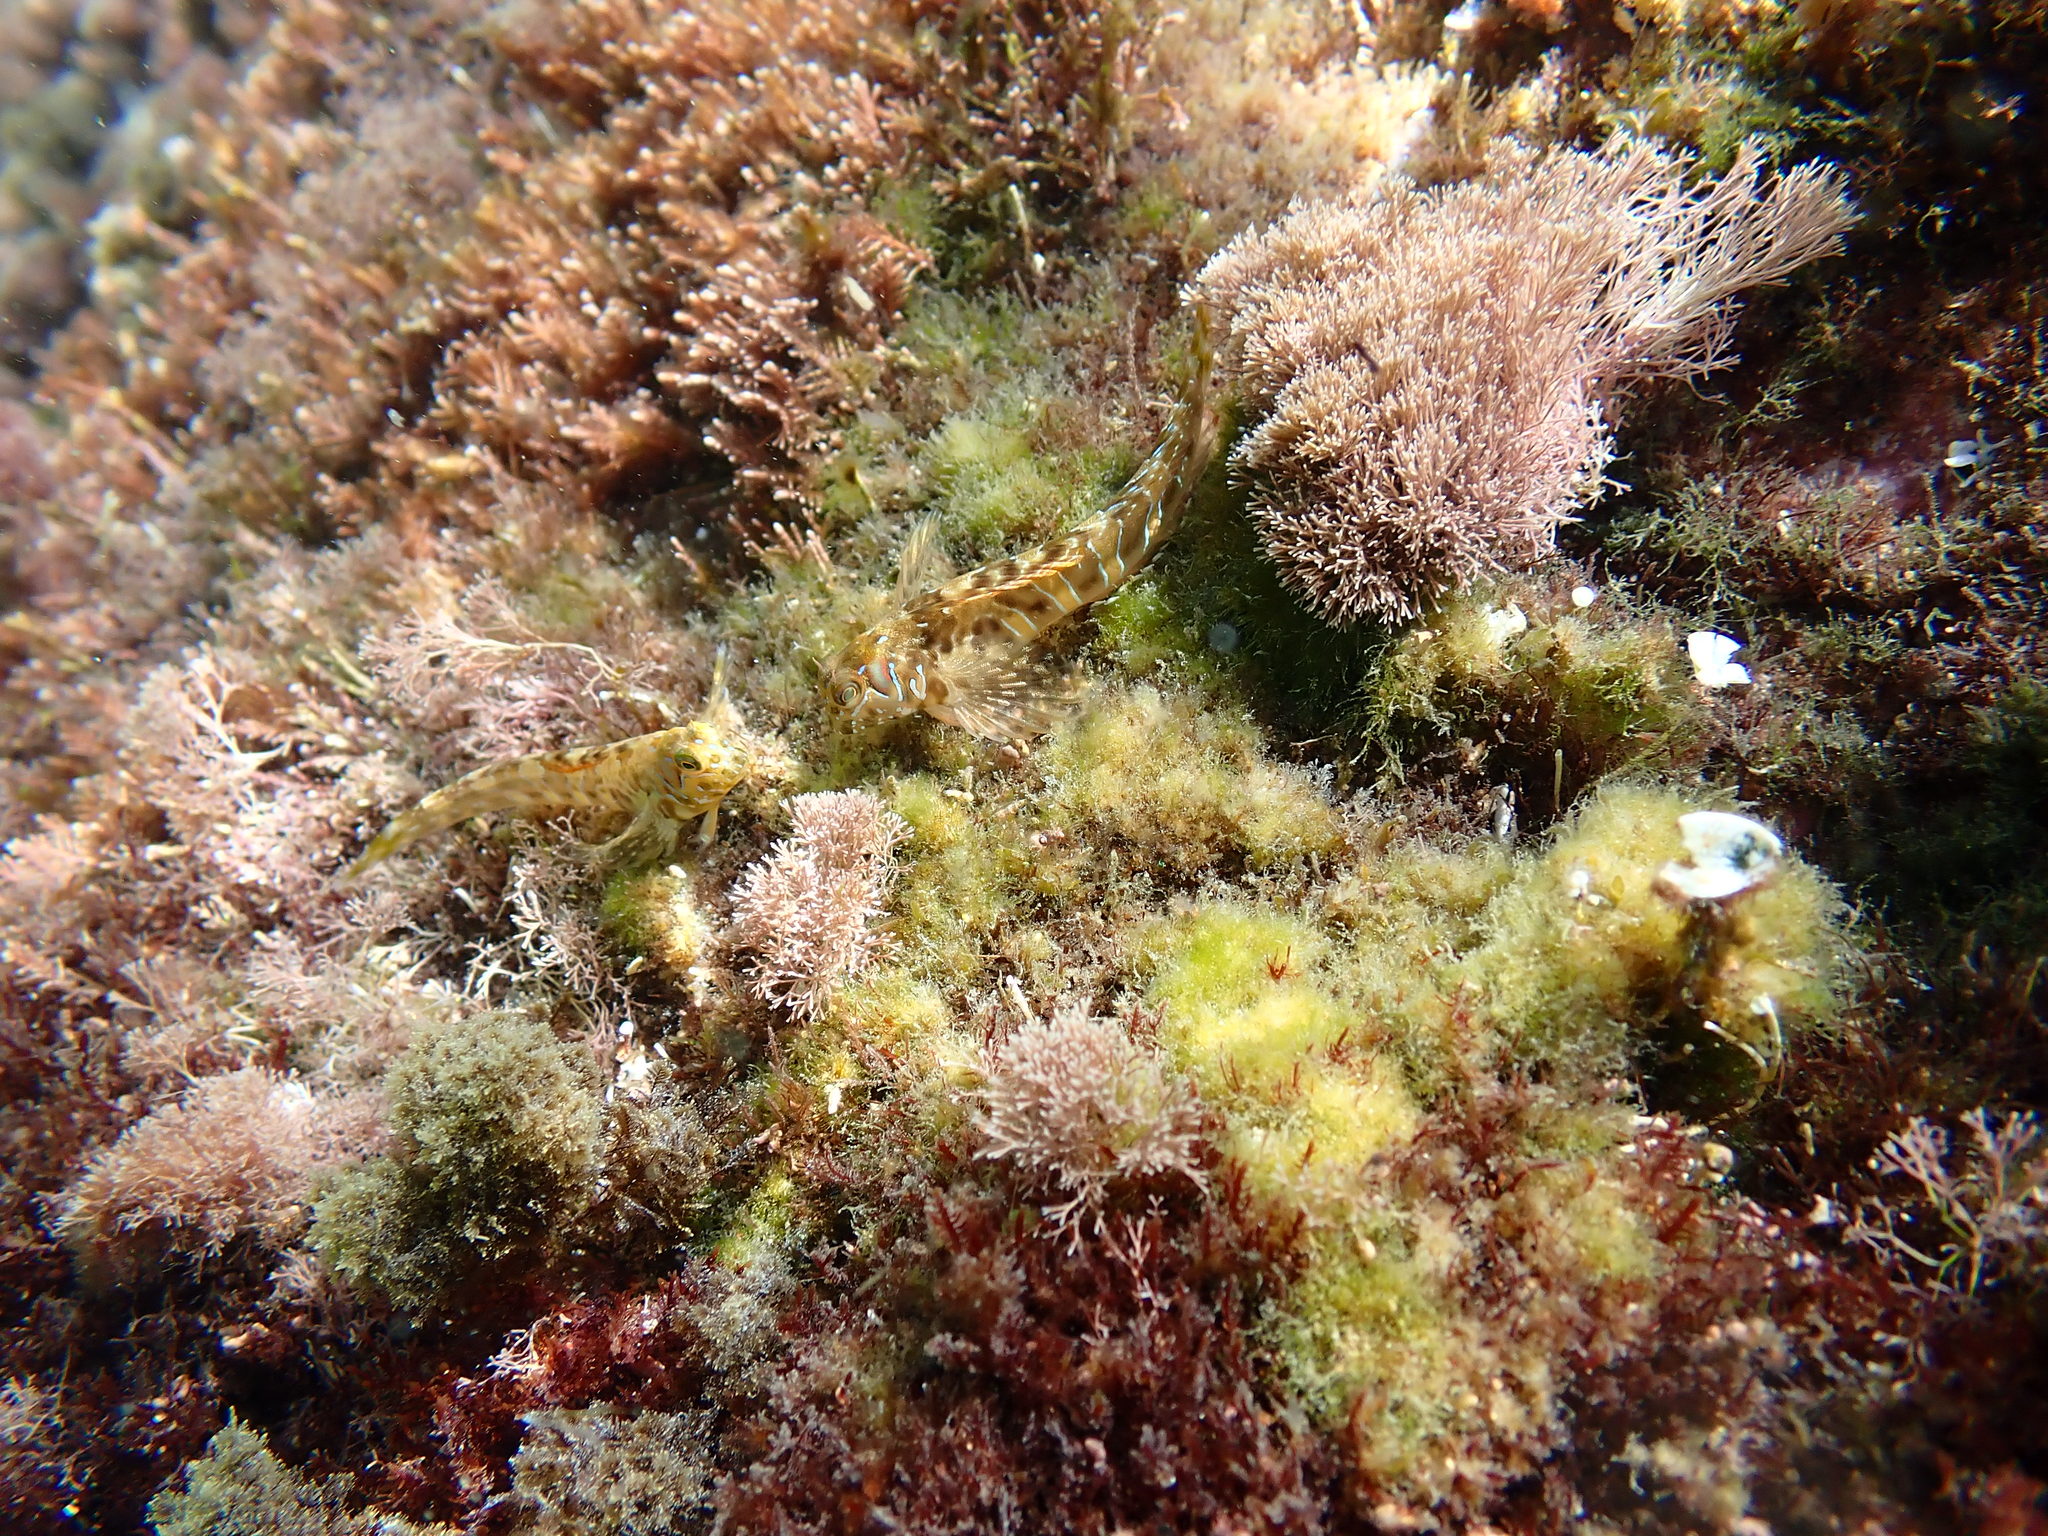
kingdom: Animalia
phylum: Chordata
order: Perciformes
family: Blenniidae
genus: Aidablennius
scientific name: Aidablennius sphynx
